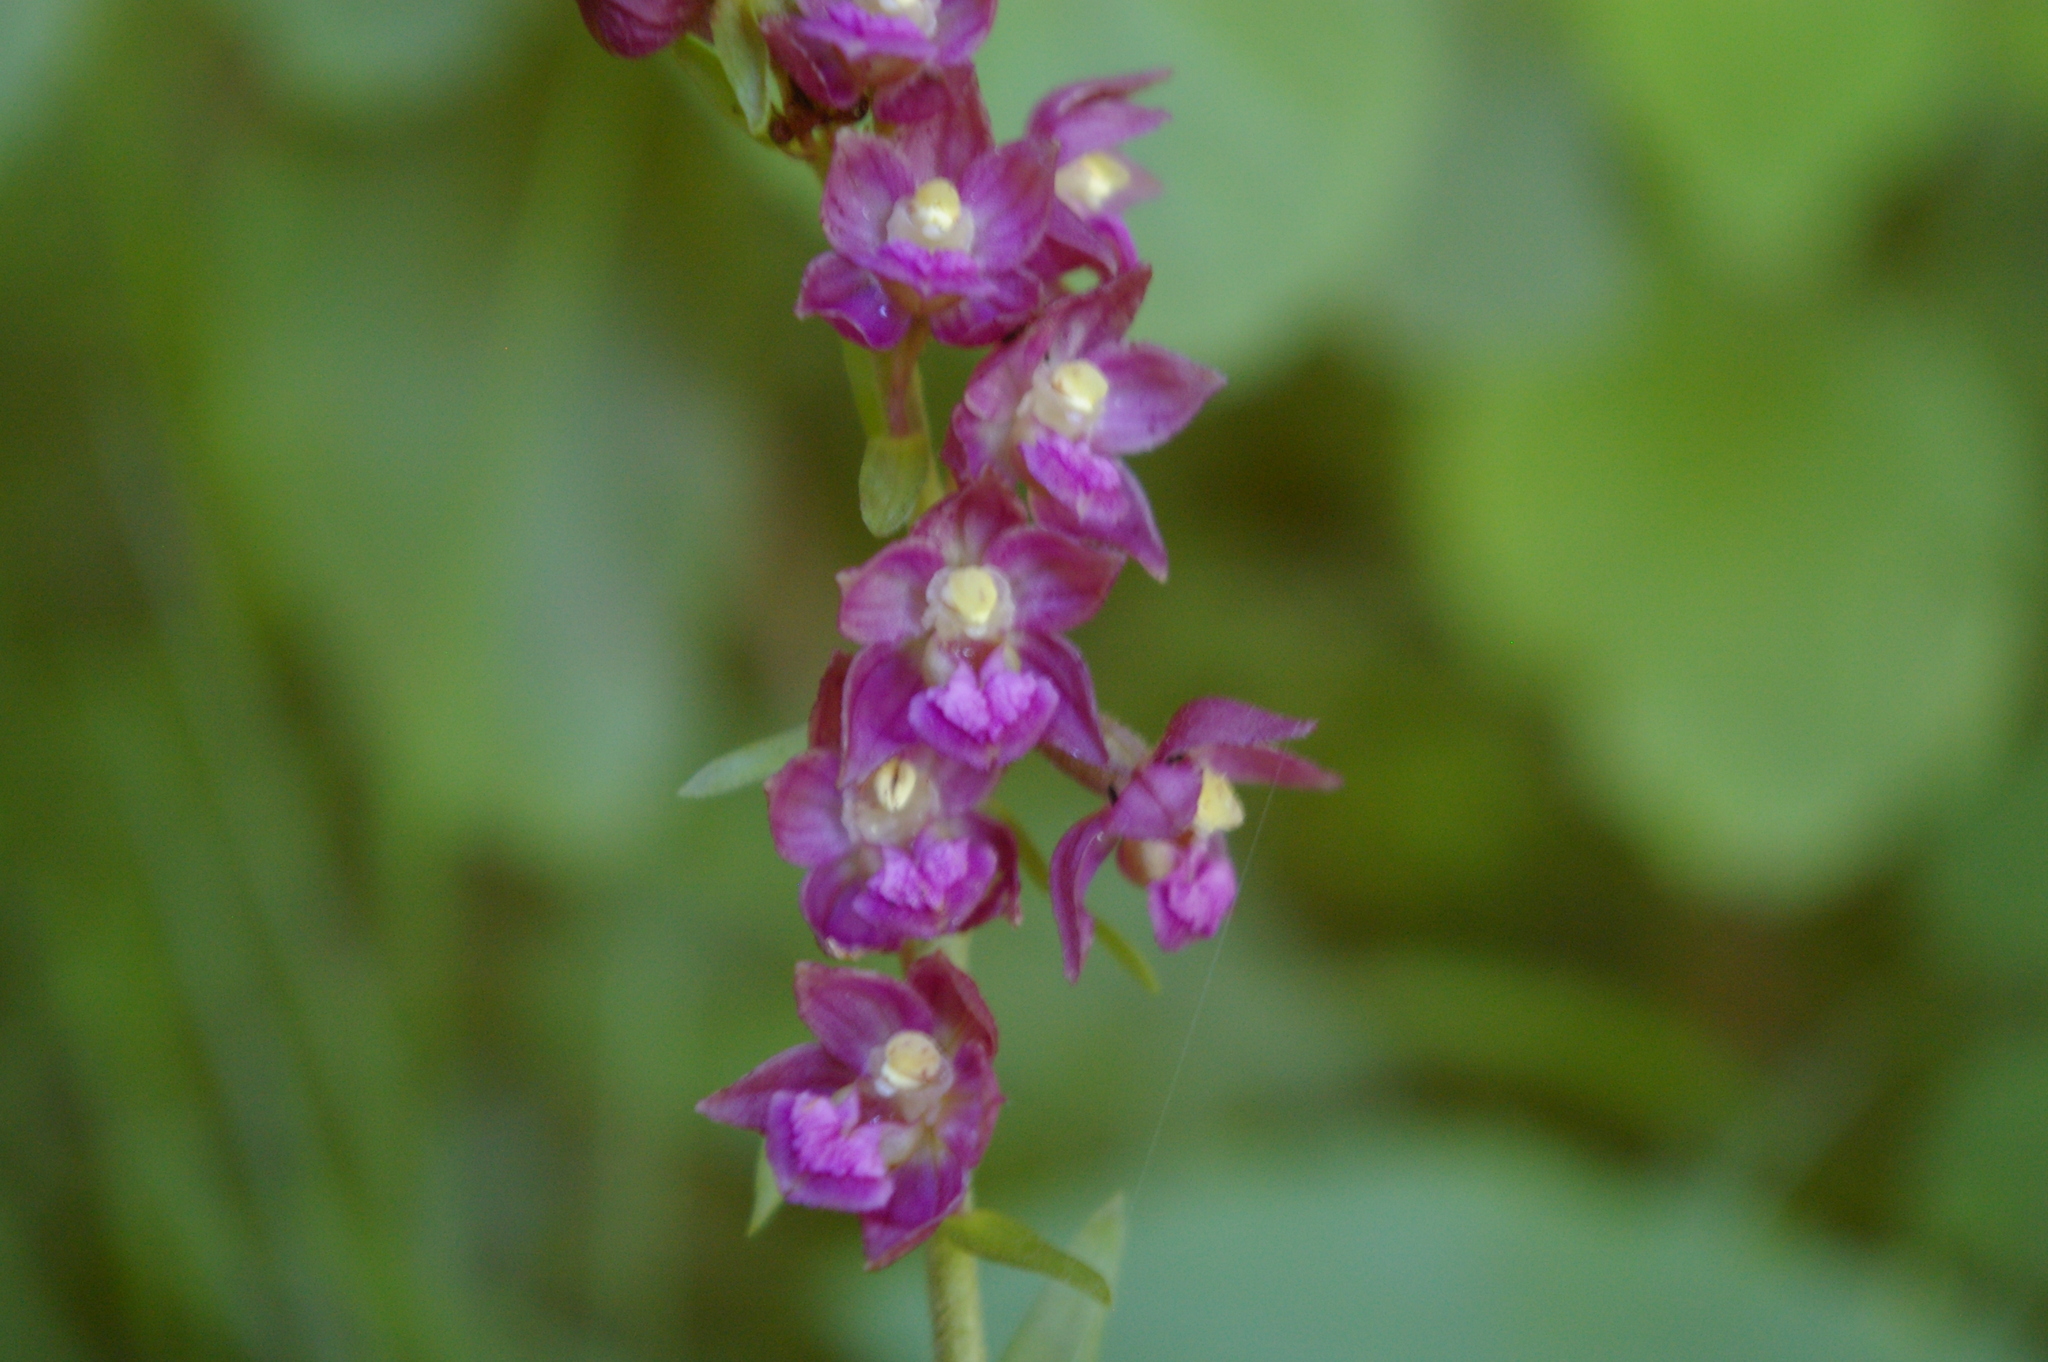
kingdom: Plantae
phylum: Tracheophyta
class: Liliopsida
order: Asparagales
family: Orchidaceae
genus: Epipactis
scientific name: Epipactis atrorubens
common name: Dark-red helleborine
